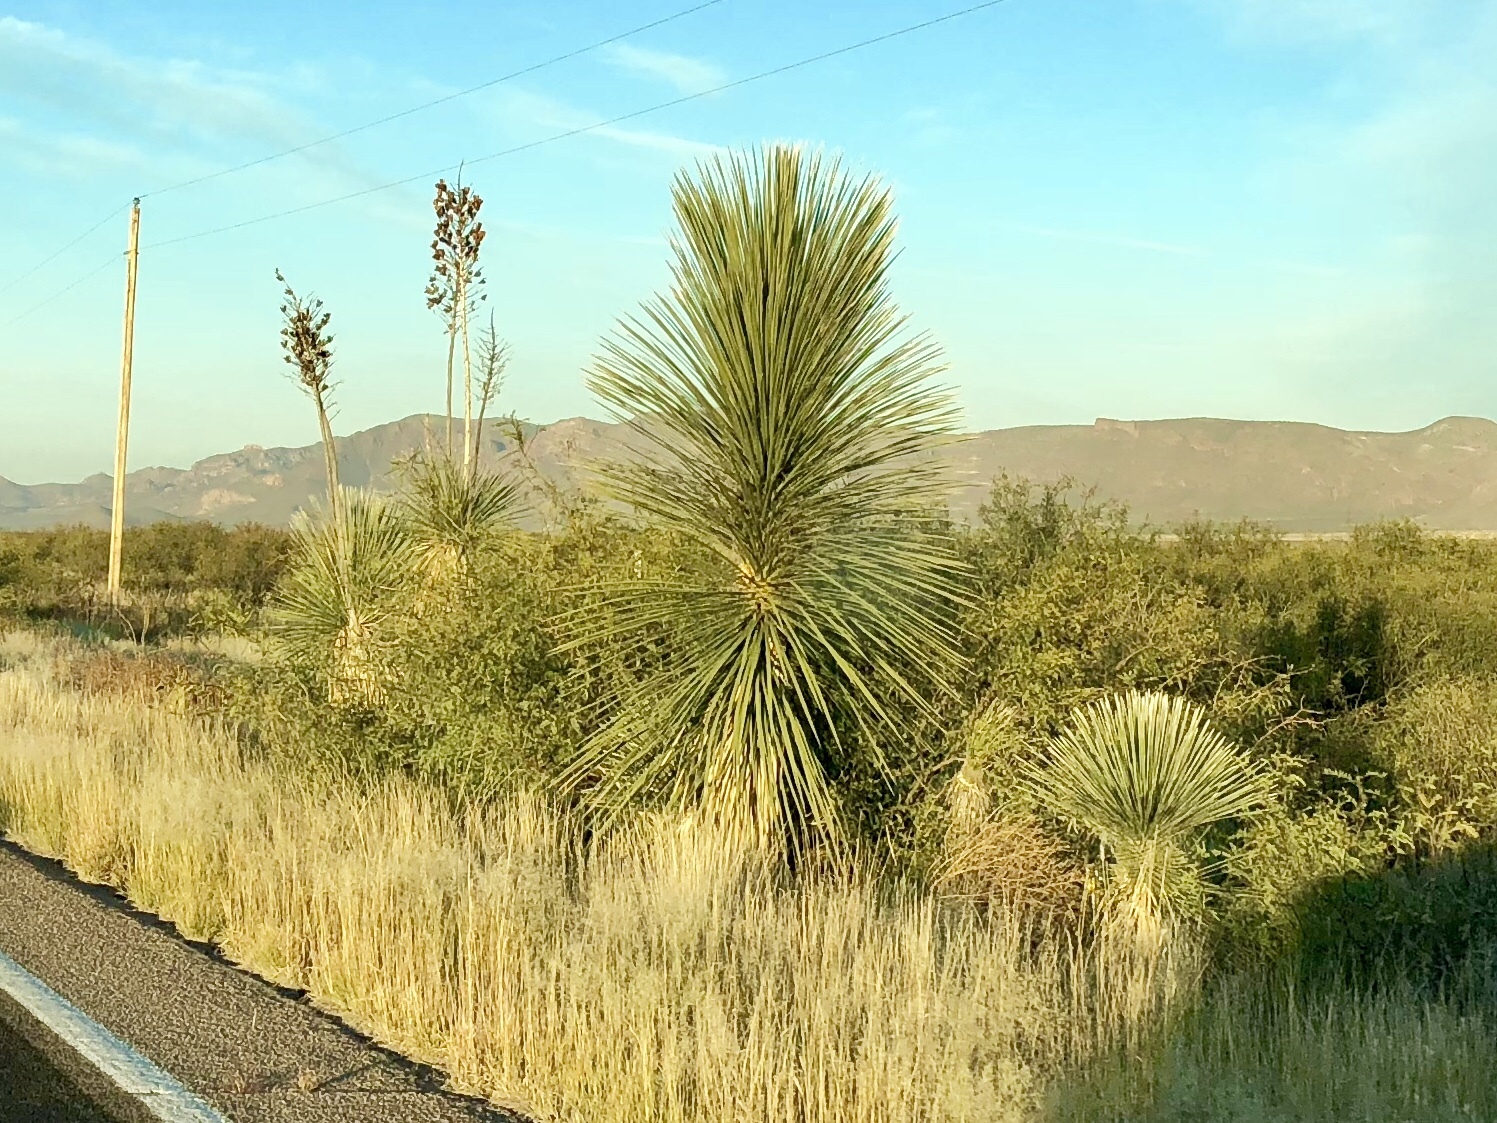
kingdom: Plantae
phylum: Tracheophyta
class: Liliopsida
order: Asparagales
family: Asparagaceae
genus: Yucca
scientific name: Yucca elata
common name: Palmella
